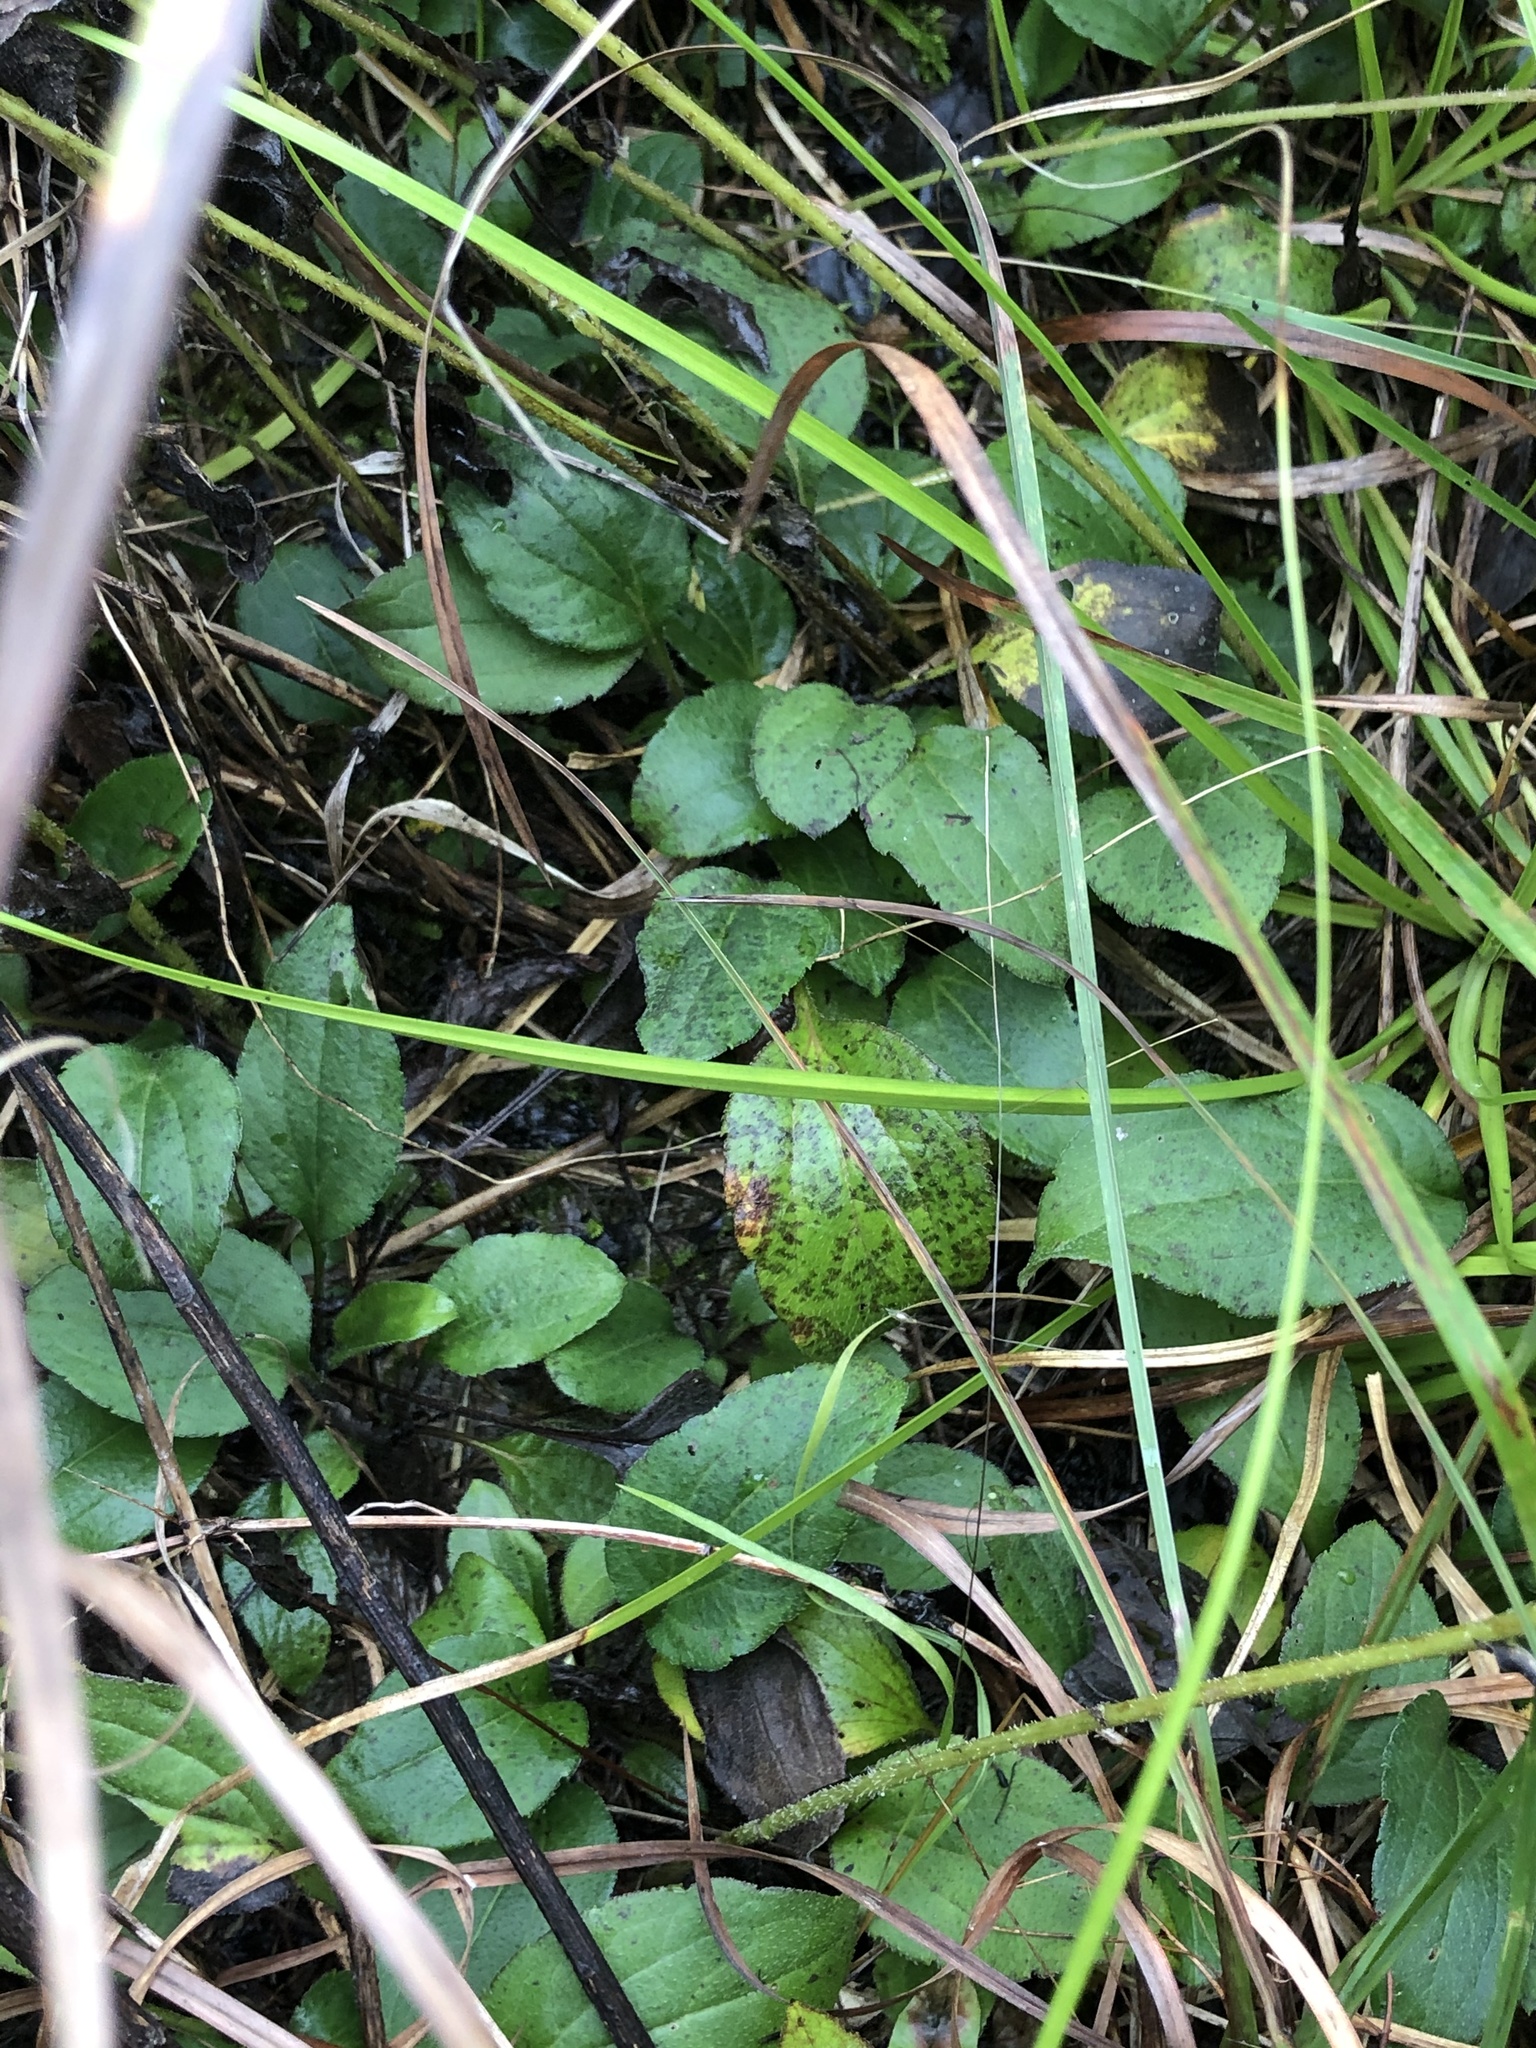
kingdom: Plantae
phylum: Tracheophyta
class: Magnoliopsida
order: Asterales
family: Asteraceae
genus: Rudbeckia
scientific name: Rudbeckia terranigrae
